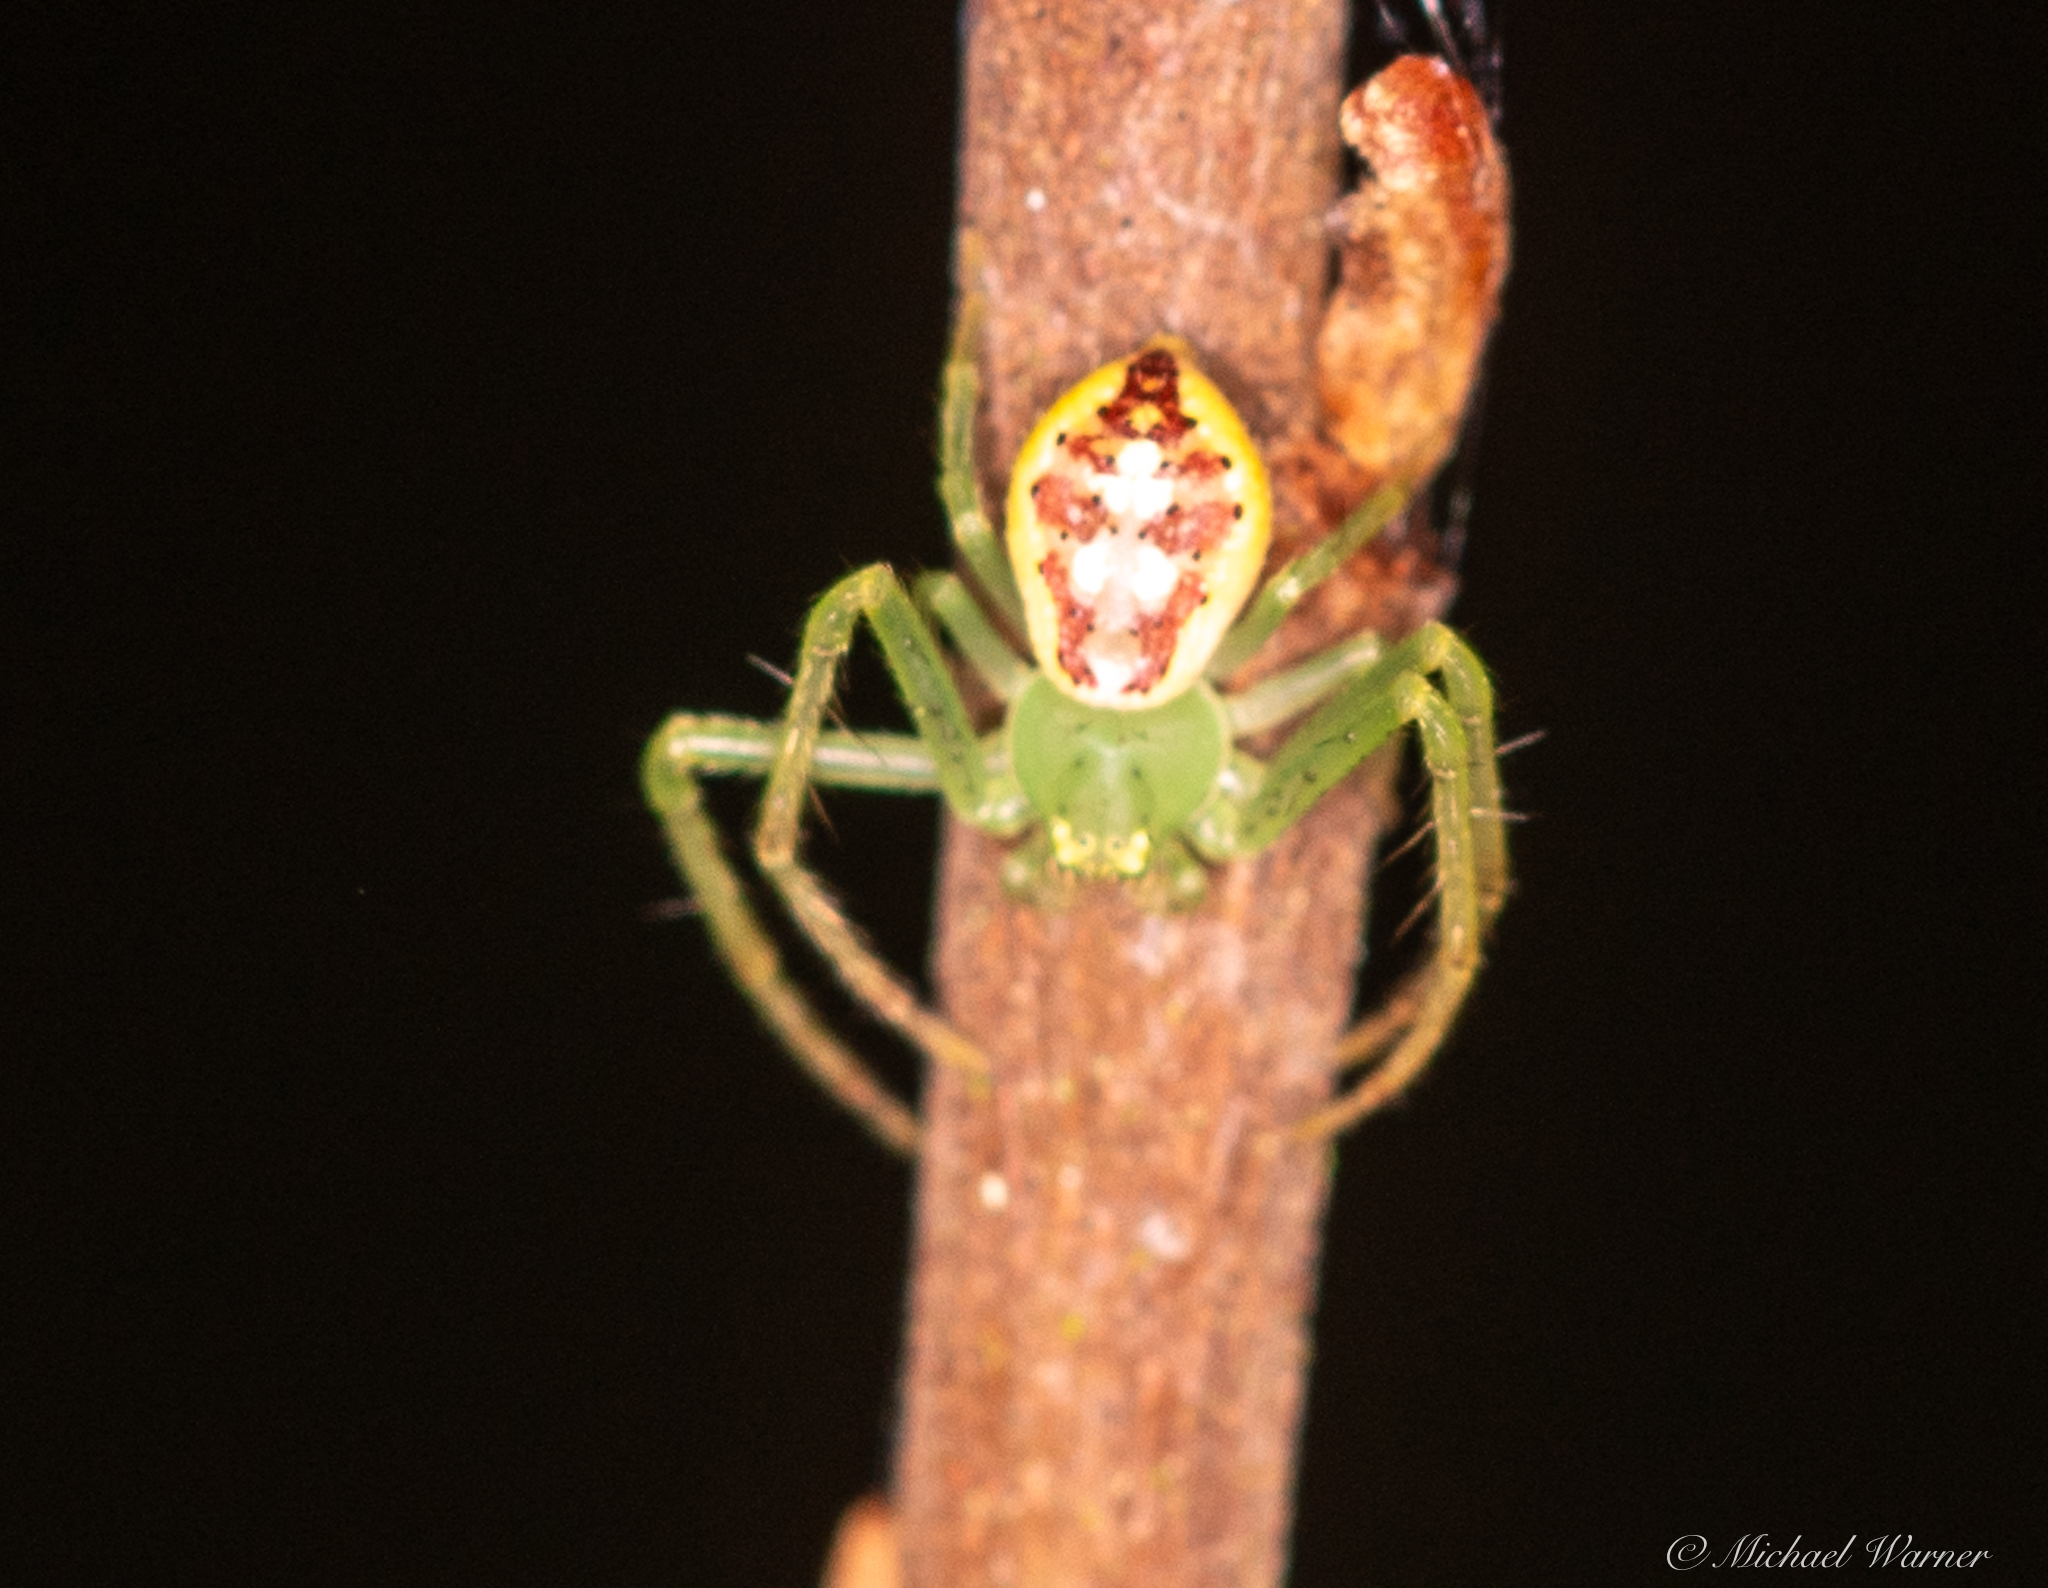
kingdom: Animalia
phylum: Arthropoda
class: Arachnida
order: Araneae
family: Thomisidae
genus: Diaea
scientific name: Diaea livens
